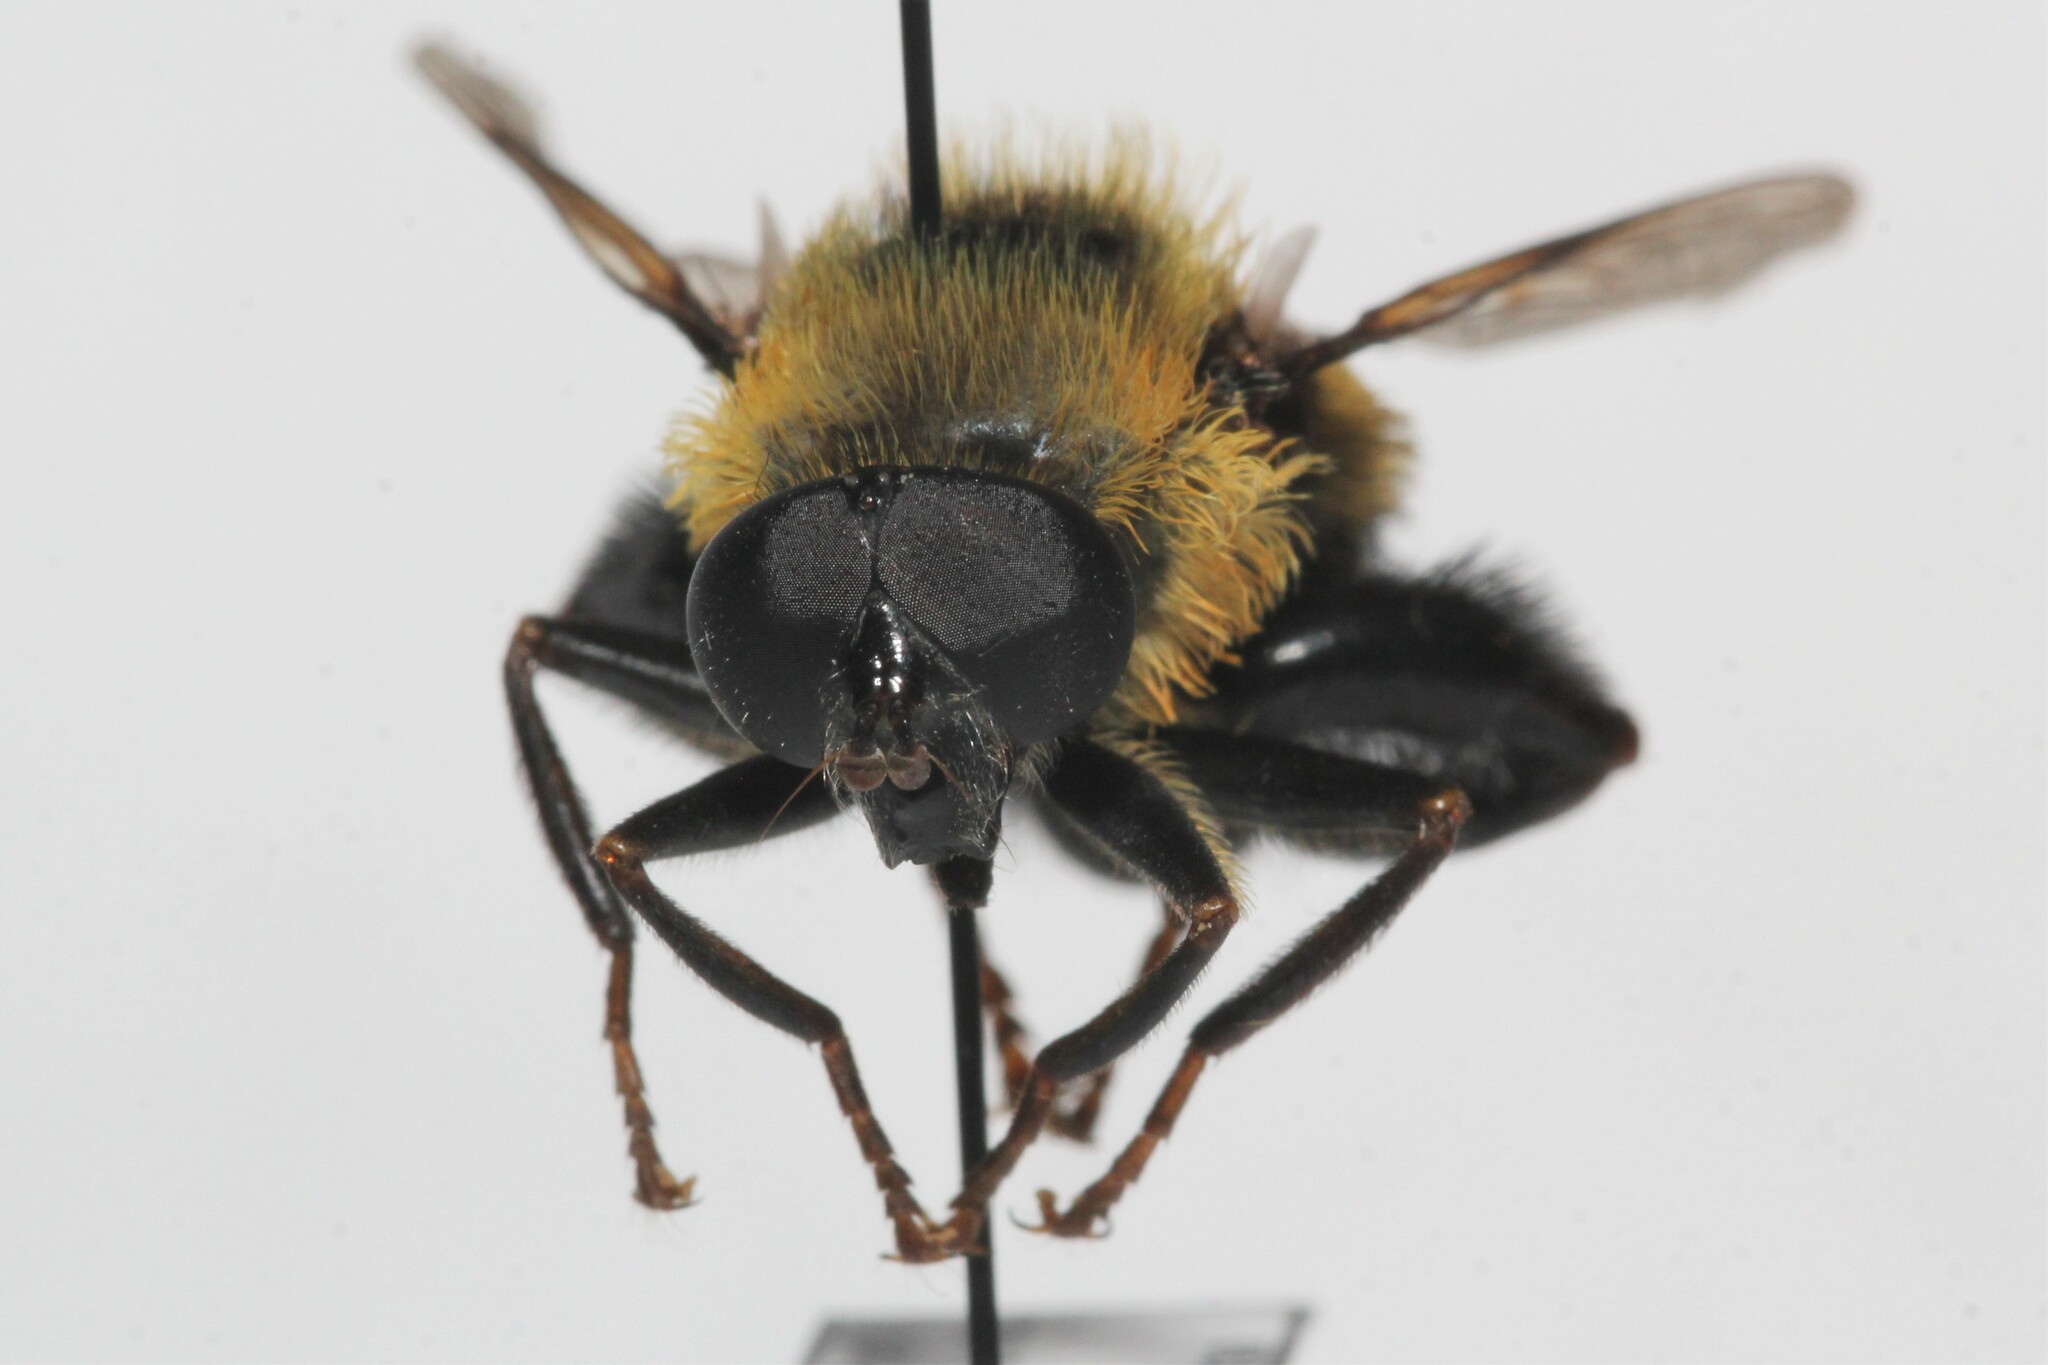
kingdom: Animalia
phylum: Arthropoda
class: Insecta
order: Diptera
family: Syrphidae
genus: Imatisma
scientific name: Imatisma posticata
